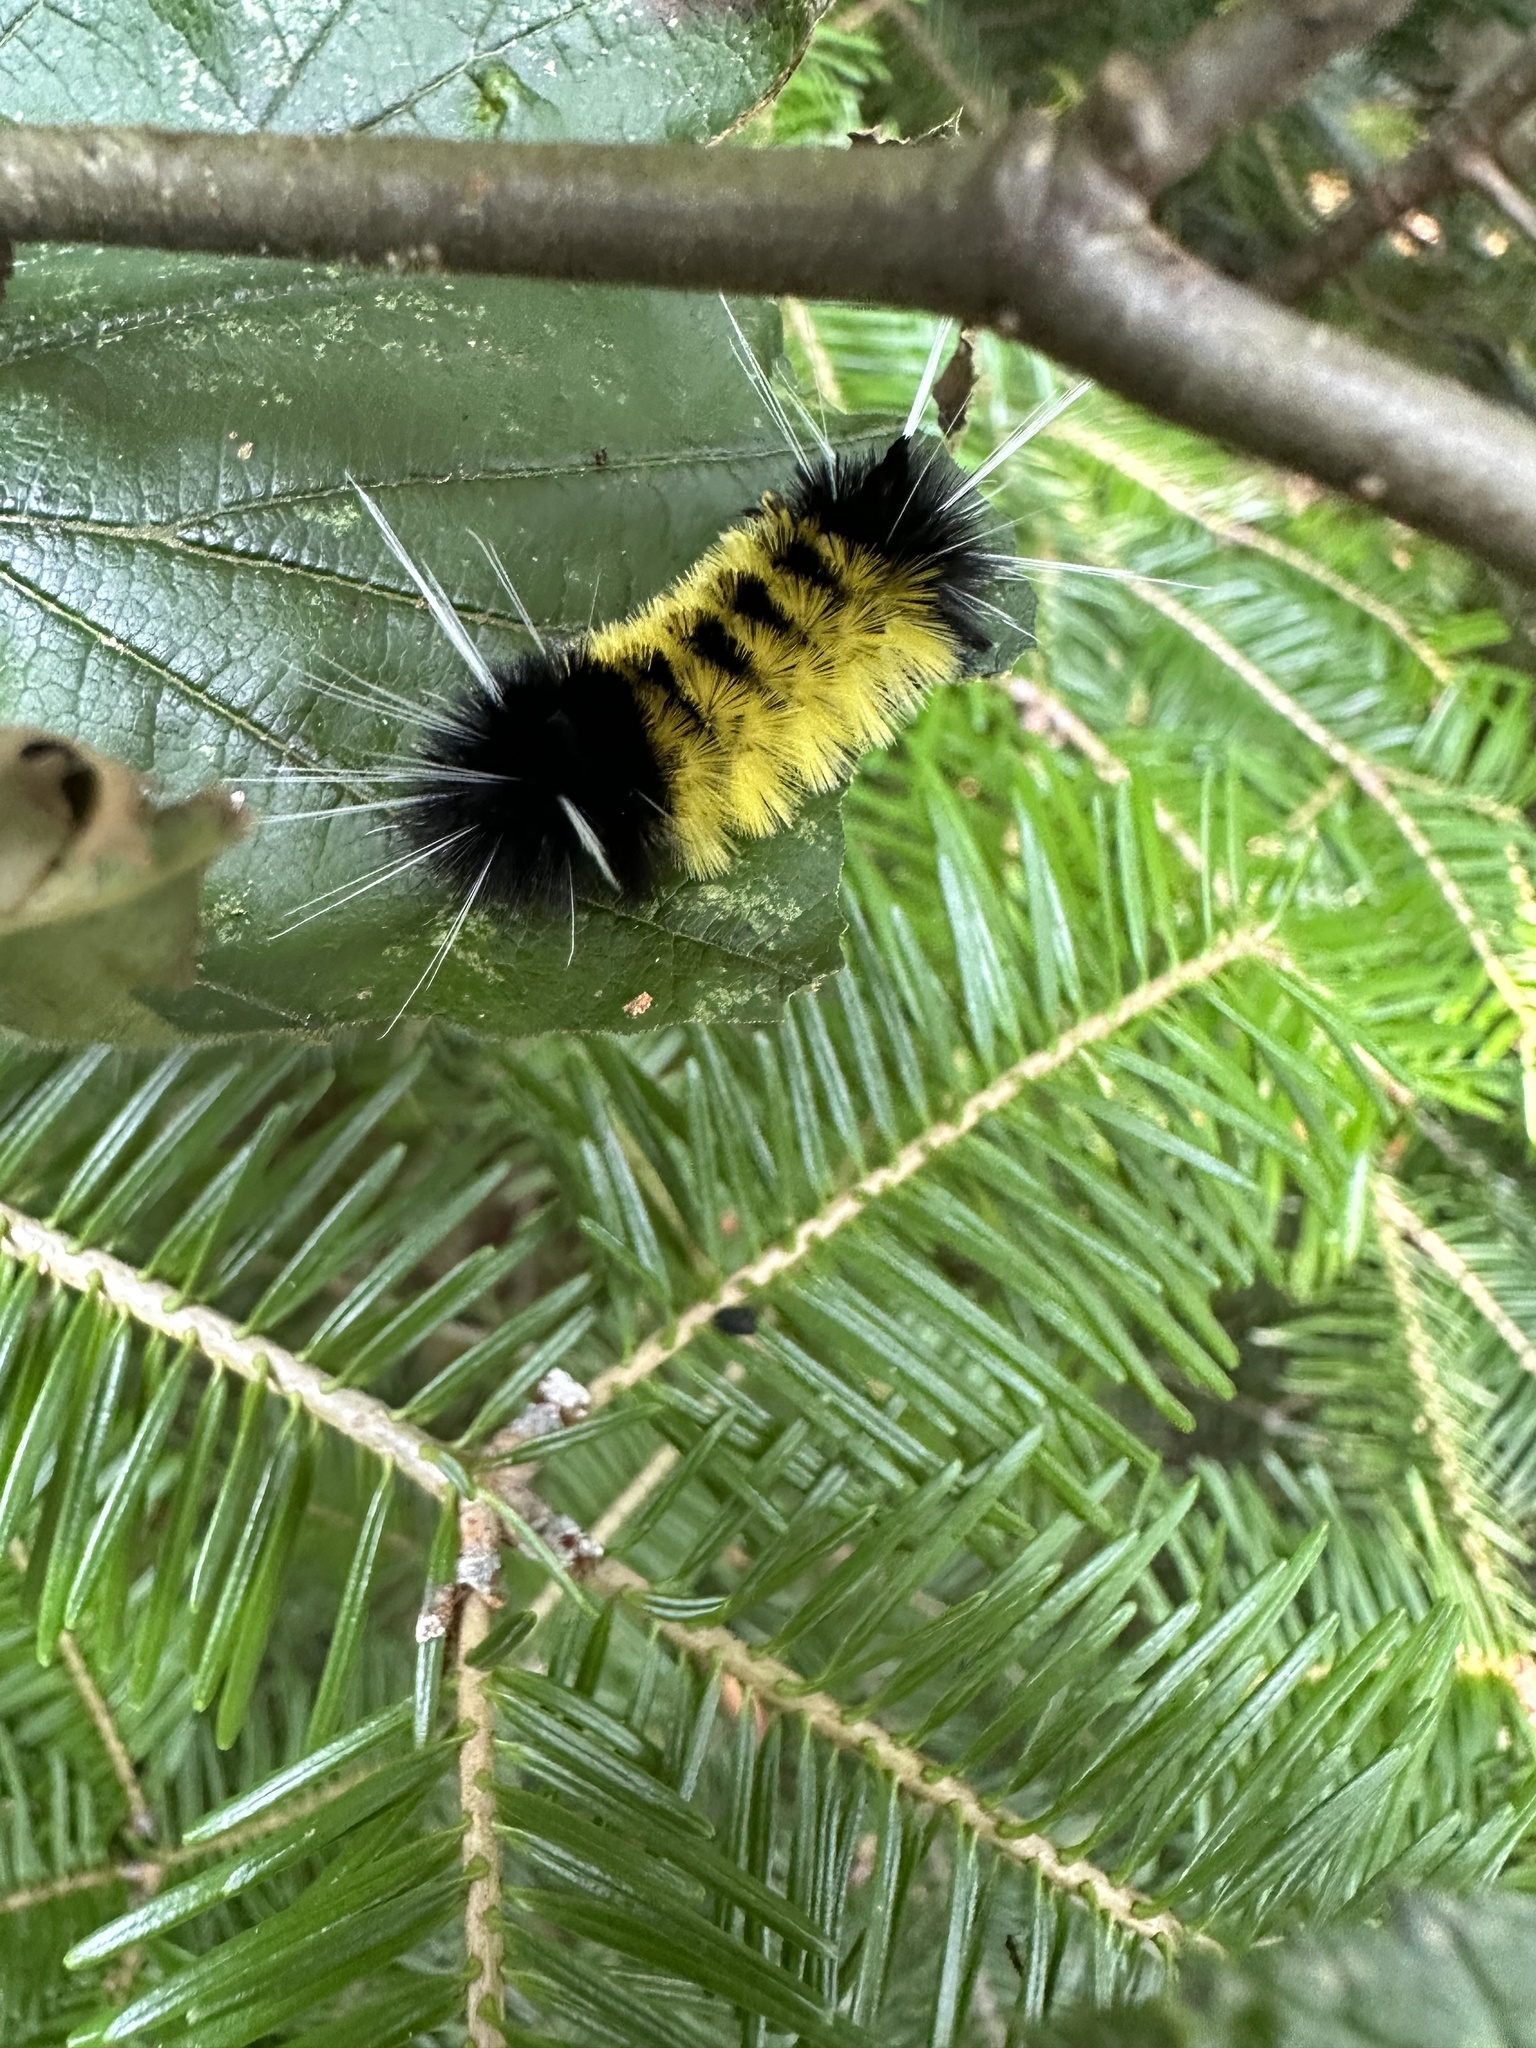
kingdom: Animalia
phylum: Arthropoda
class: Insecta
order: Lepidoptera
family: Erebidae
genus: Lophocampa
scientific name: Lophocampa maculata
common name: Spotted tussock moth
